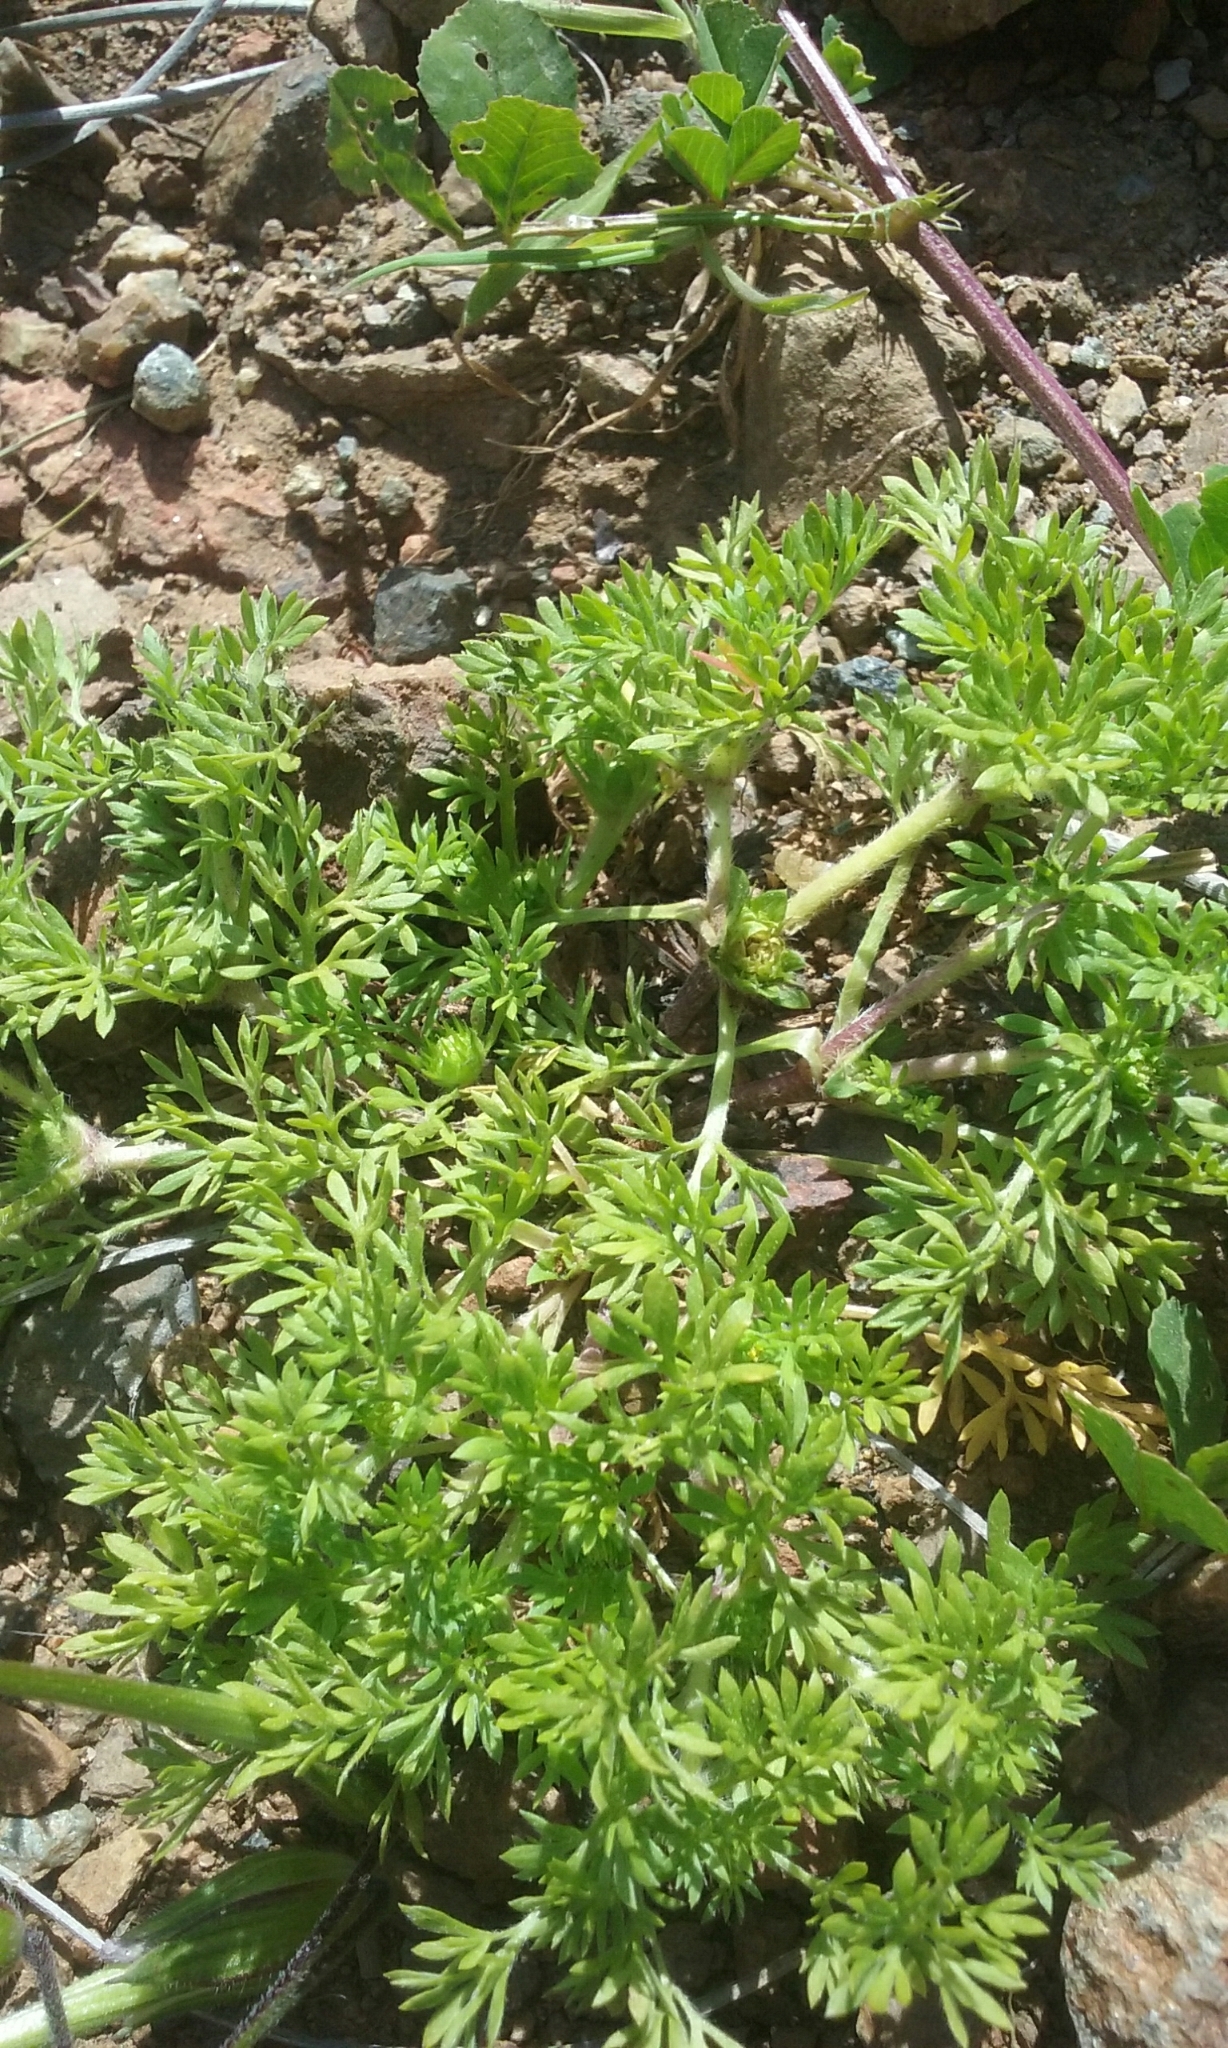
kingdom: Plantae
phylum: Tracheophyta
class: Magnoliopsida
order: Asterales
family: Asteraceae
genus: Soliva
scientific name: Soliva sessilis
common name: Field burrweed
